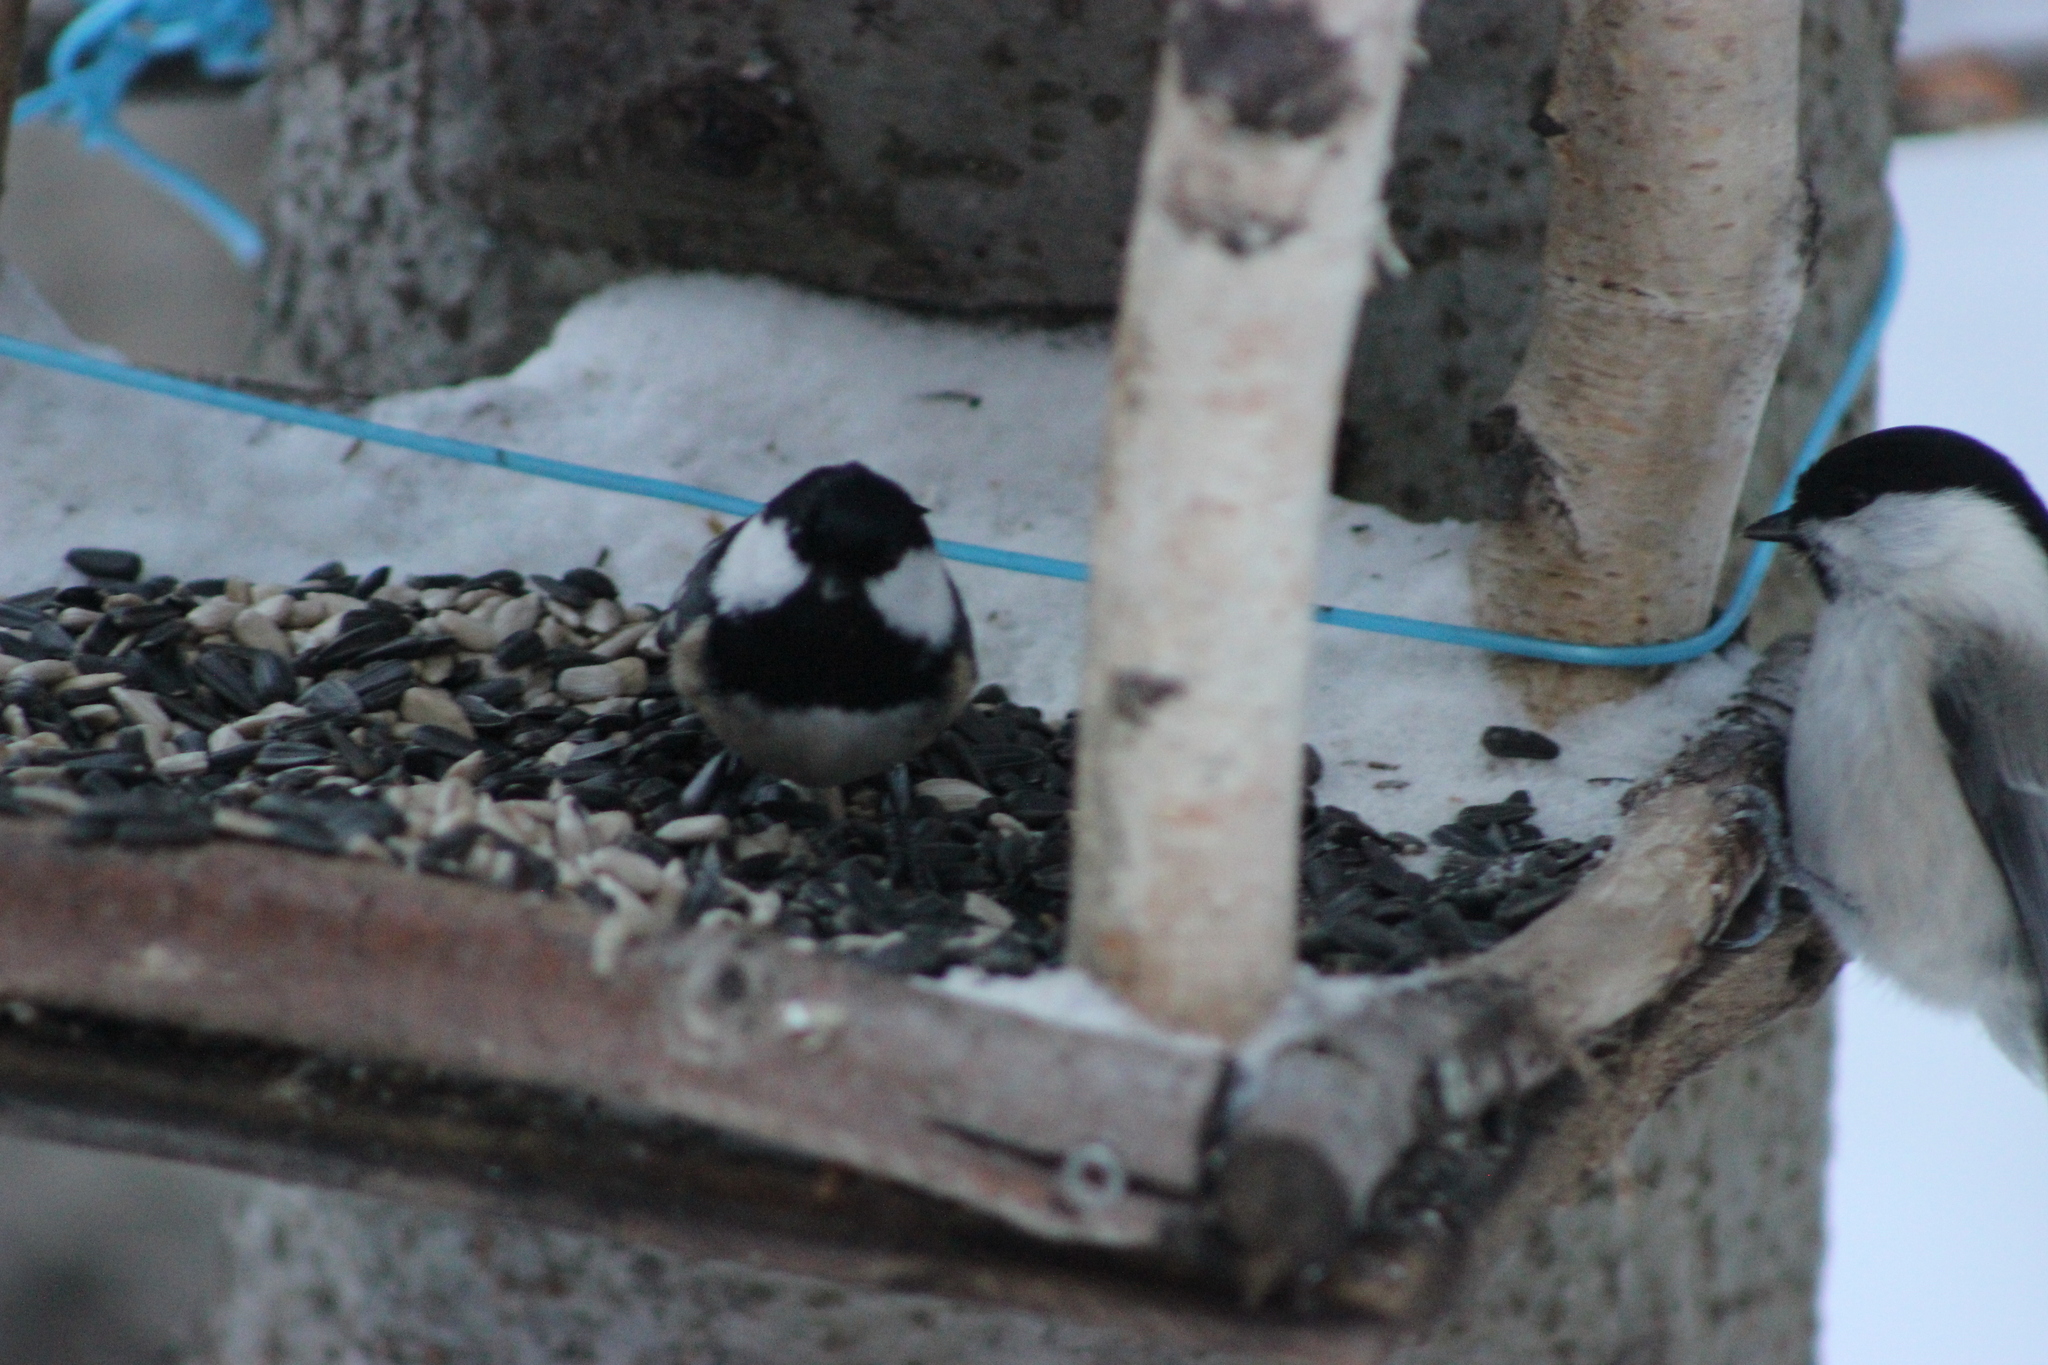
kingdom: Animalia
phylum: Chordata
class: Aves
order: Passeriformes
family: Paridae
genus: Periparus
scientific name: Periparus ater
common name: Coal tit
